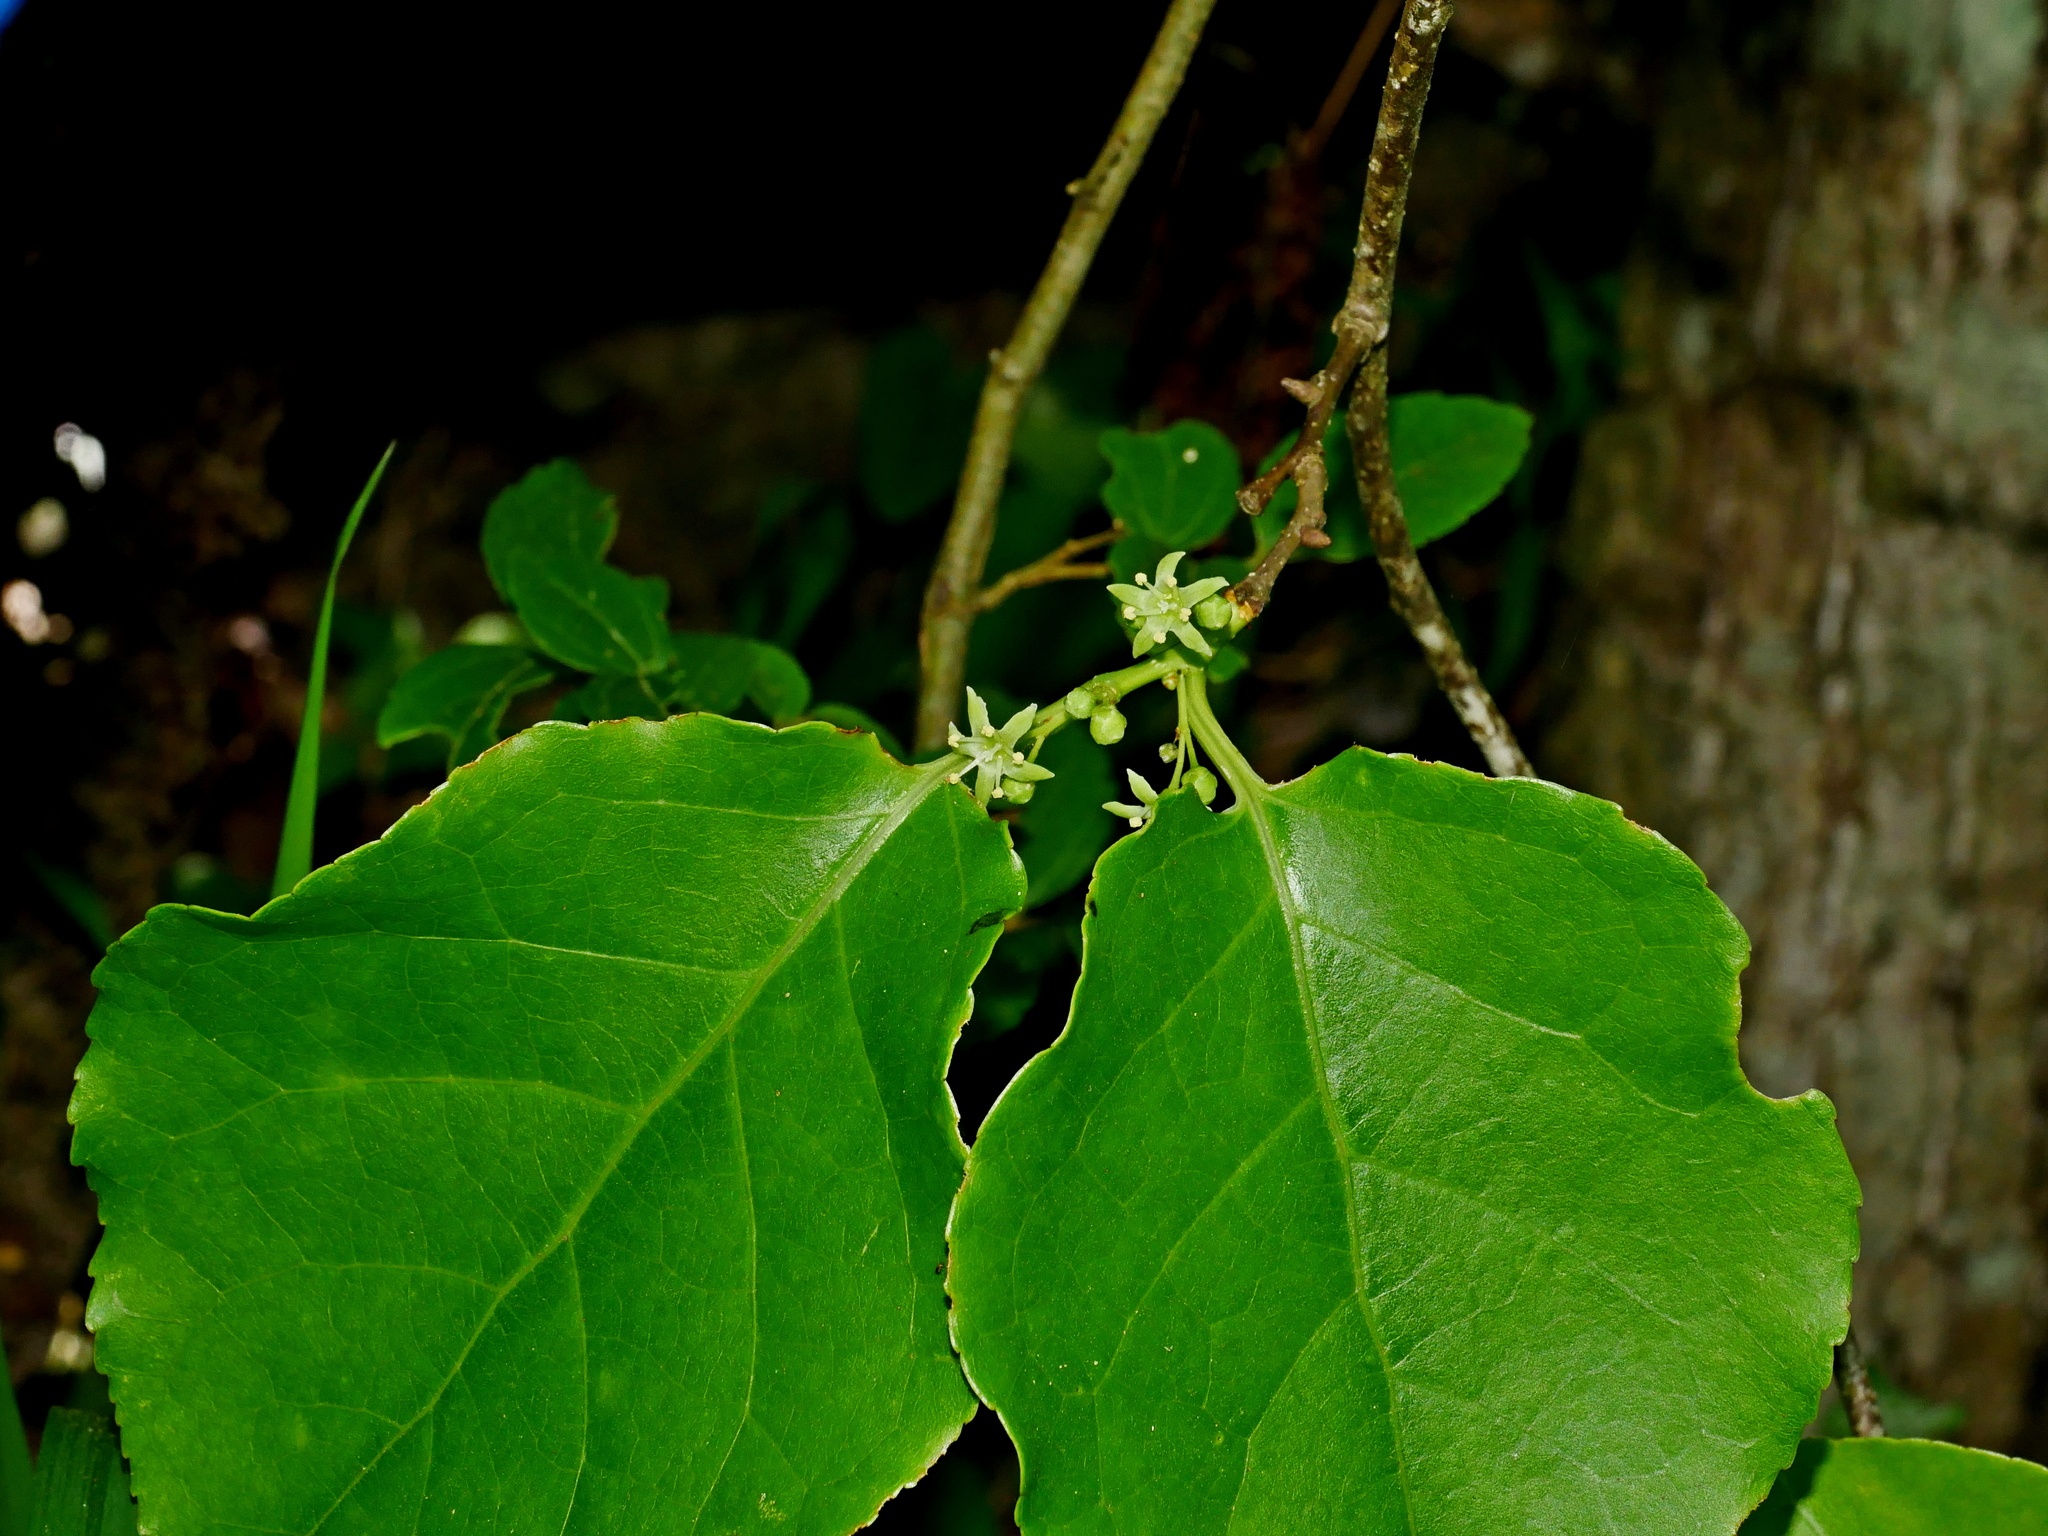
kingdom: Plantae
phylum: Tracheophyta
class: Magnoliopsida
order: Celastrales
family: Celastraceae
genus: Celastrus
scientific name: Celastrus kusanoi
